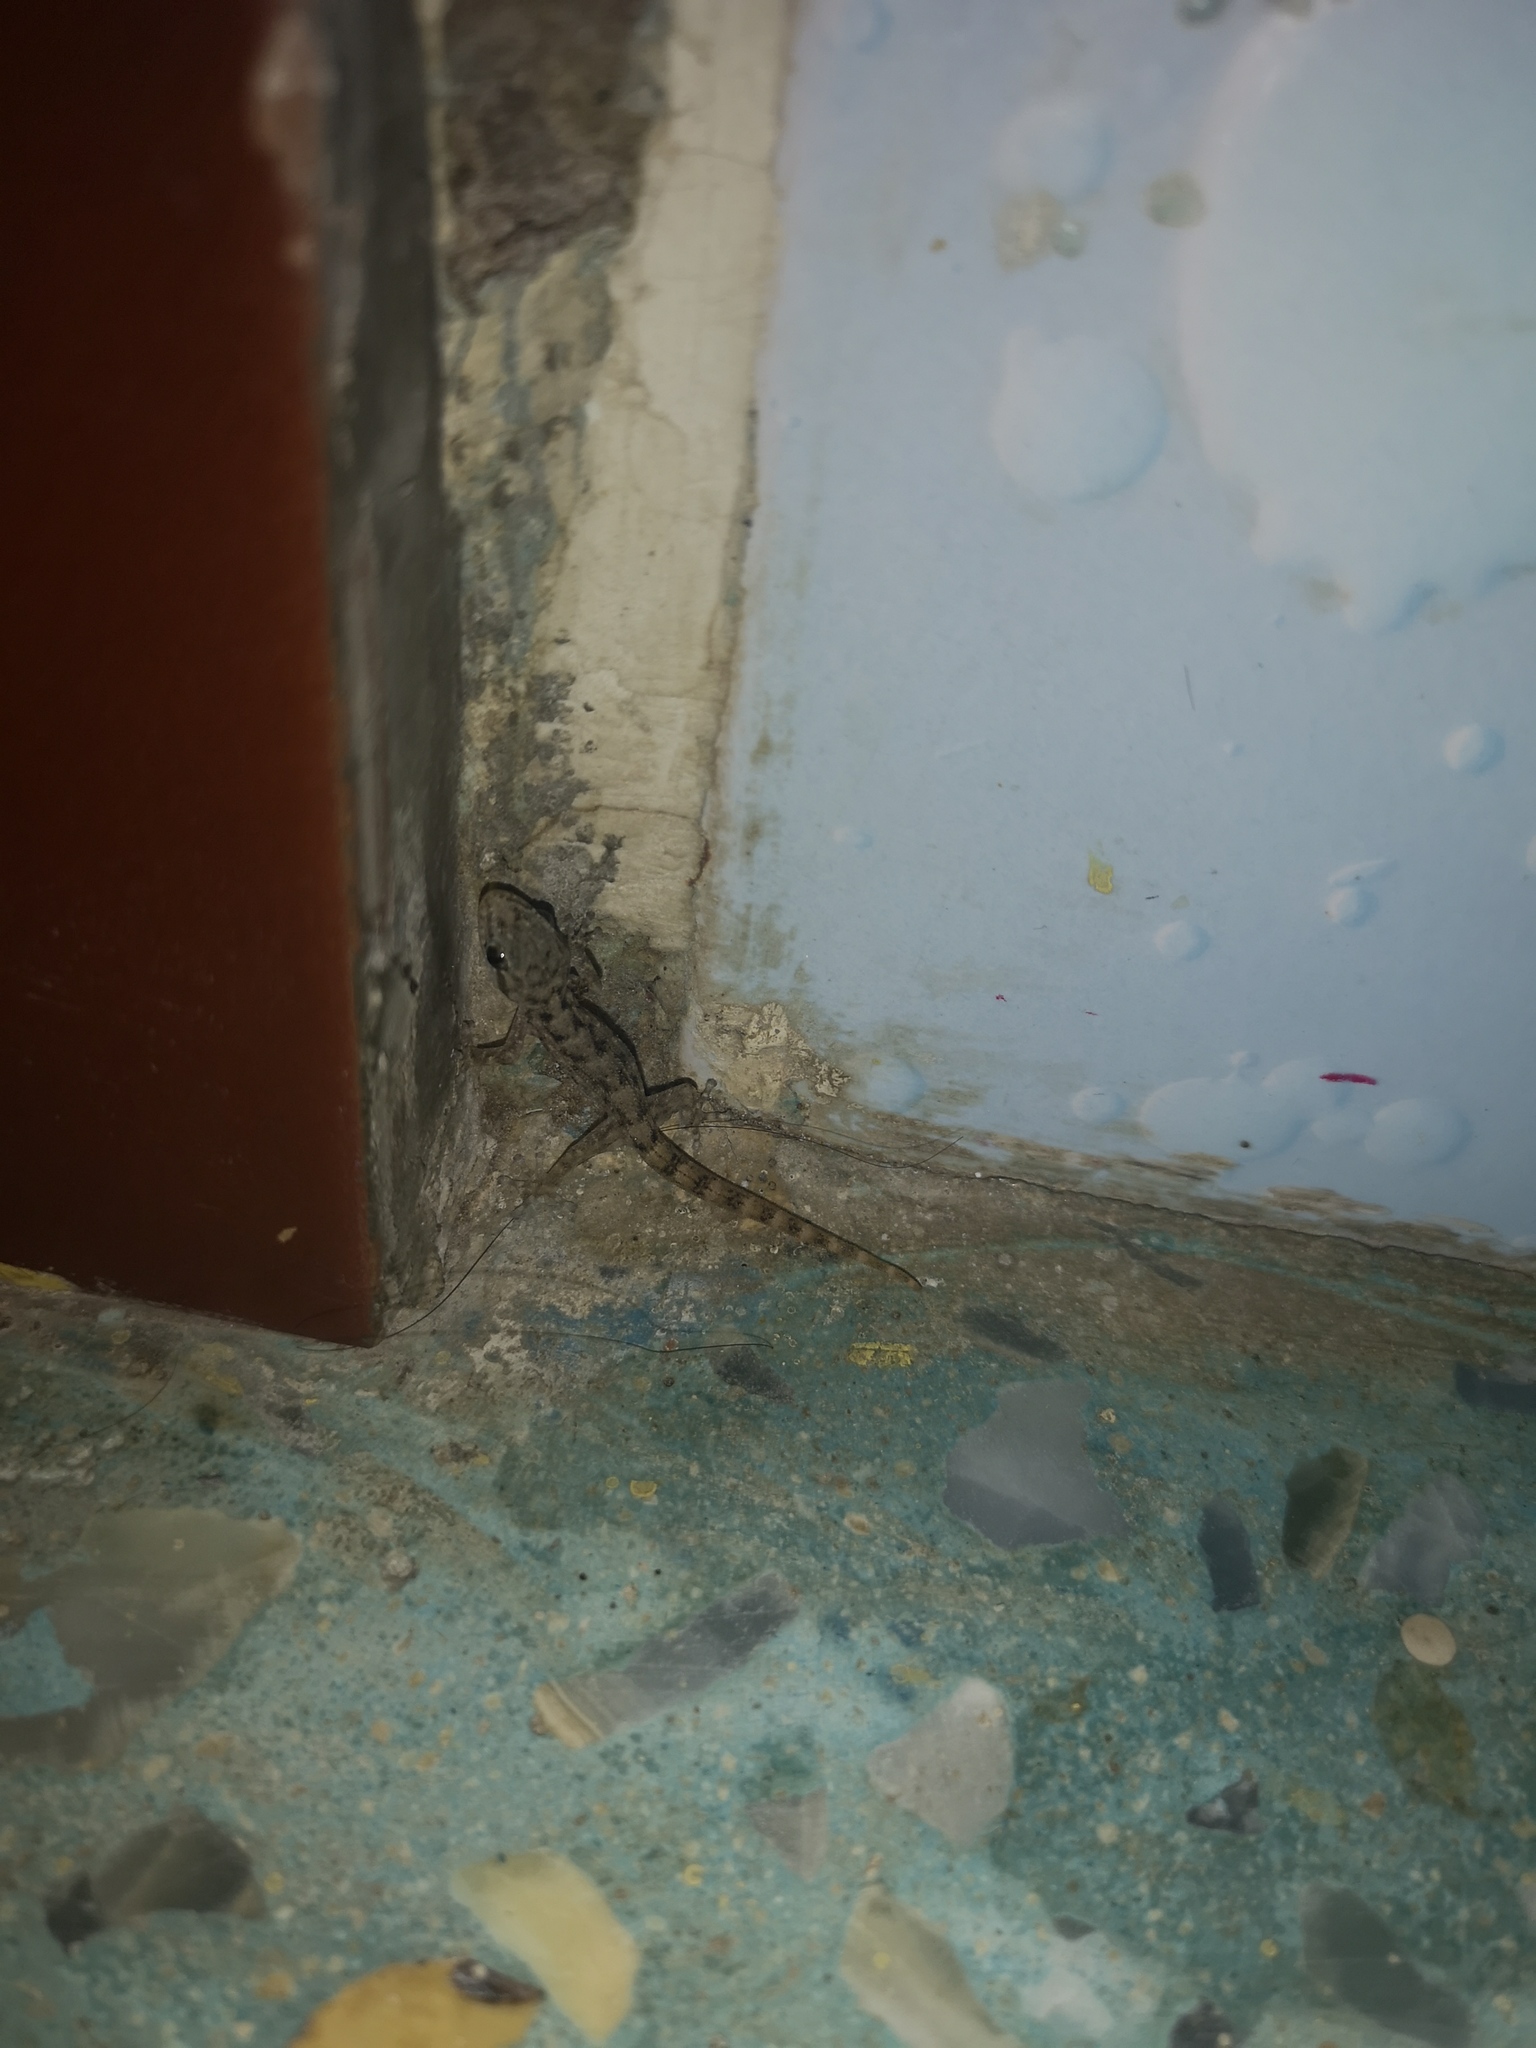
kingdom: Animalia
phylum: Chordata
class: Squamata
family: Phyllodactylidae
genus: Phyllodactylus
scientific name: Phyllodactylus reissii
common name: Peters' leaf-toed gecko
